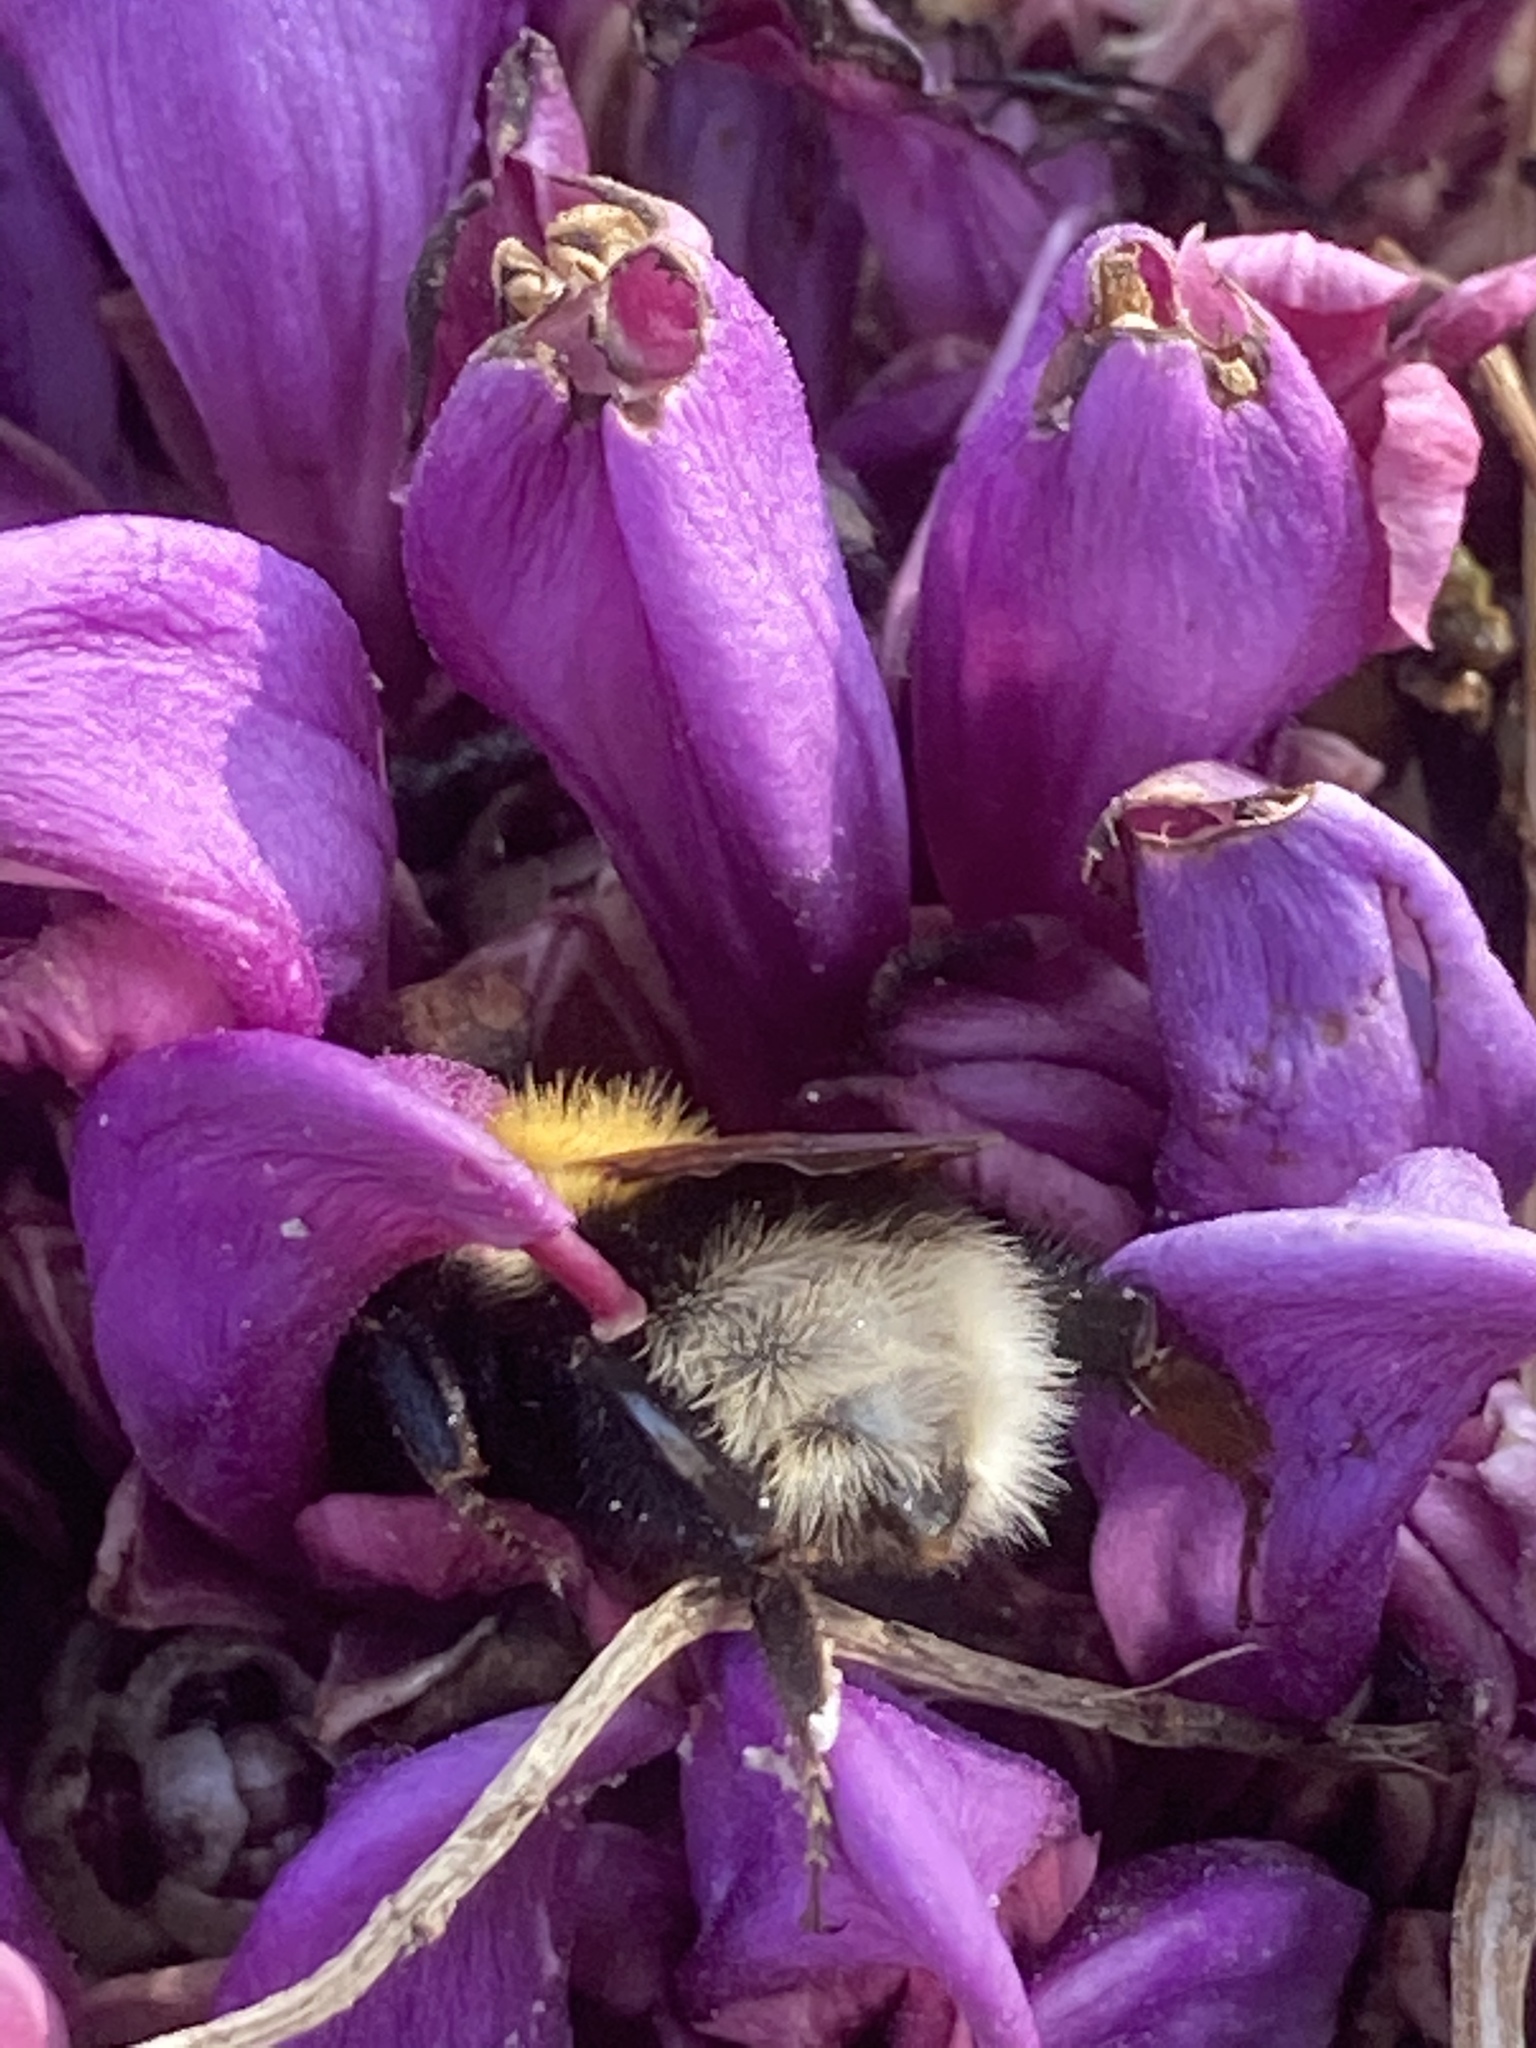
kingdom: Plantae
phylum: Tracheophyta
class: Magnoliopsida
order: Lamiales
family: Orobanchaceae
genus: Lathraea
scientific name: Lathraea clandestina
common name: Purple toothwort
